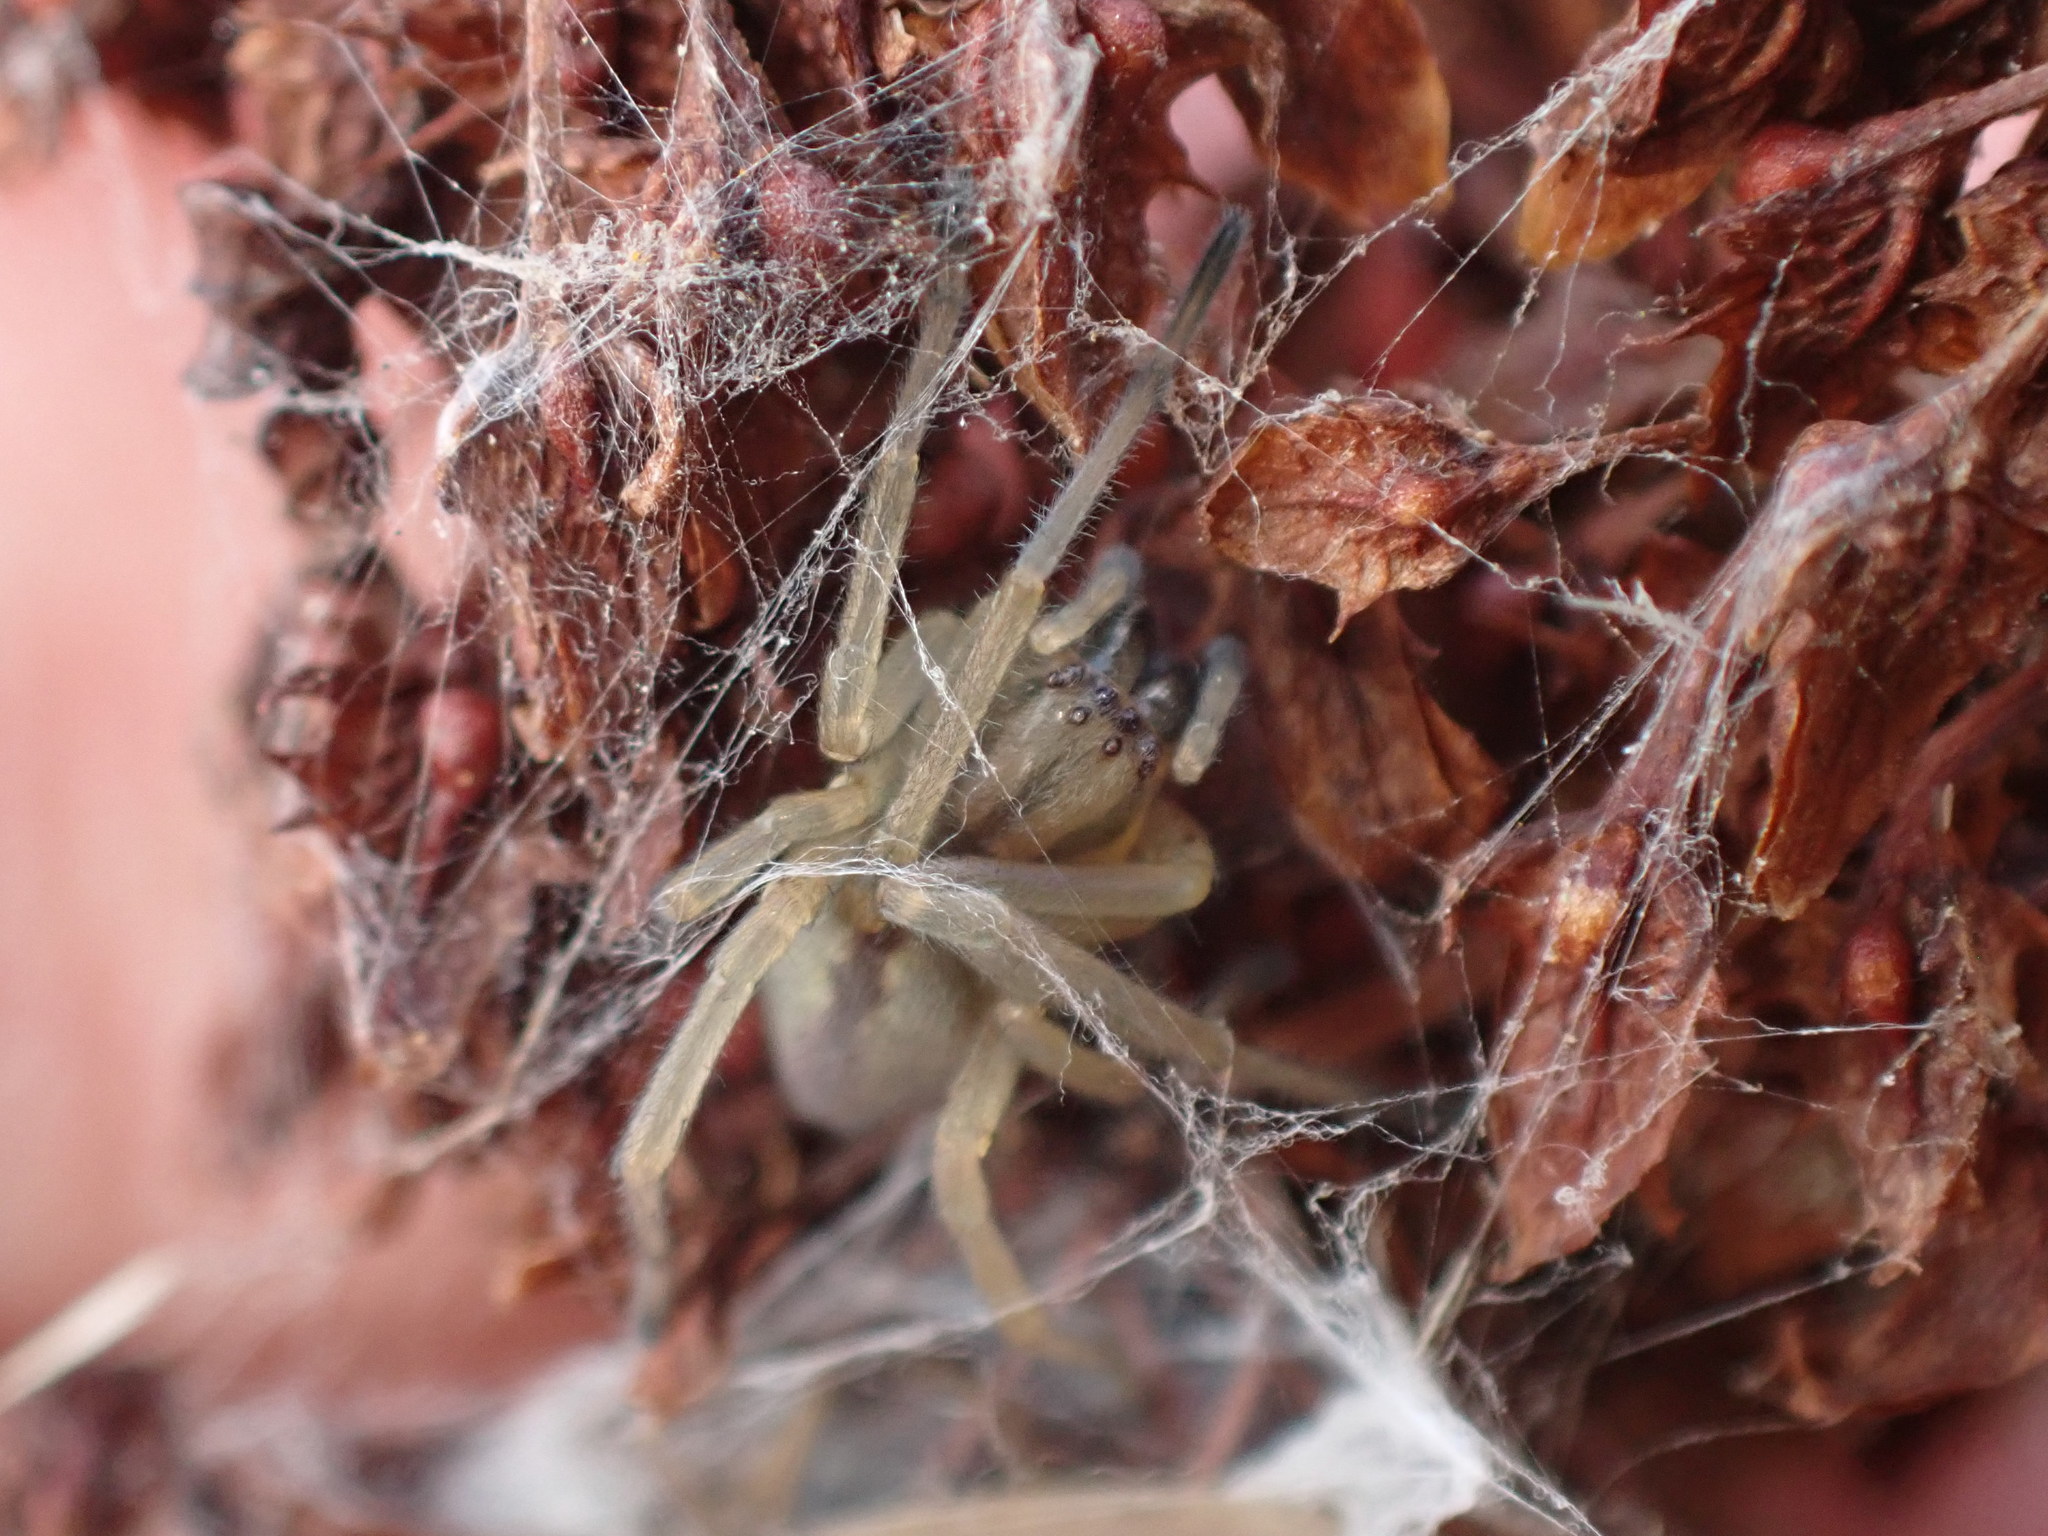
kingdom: Animalia
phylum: Arthropoda
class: Arachnida
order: Araneae
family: Cheiracanthiidae
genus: Cheiracanthium
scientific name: Cheiracanthium erraticum
